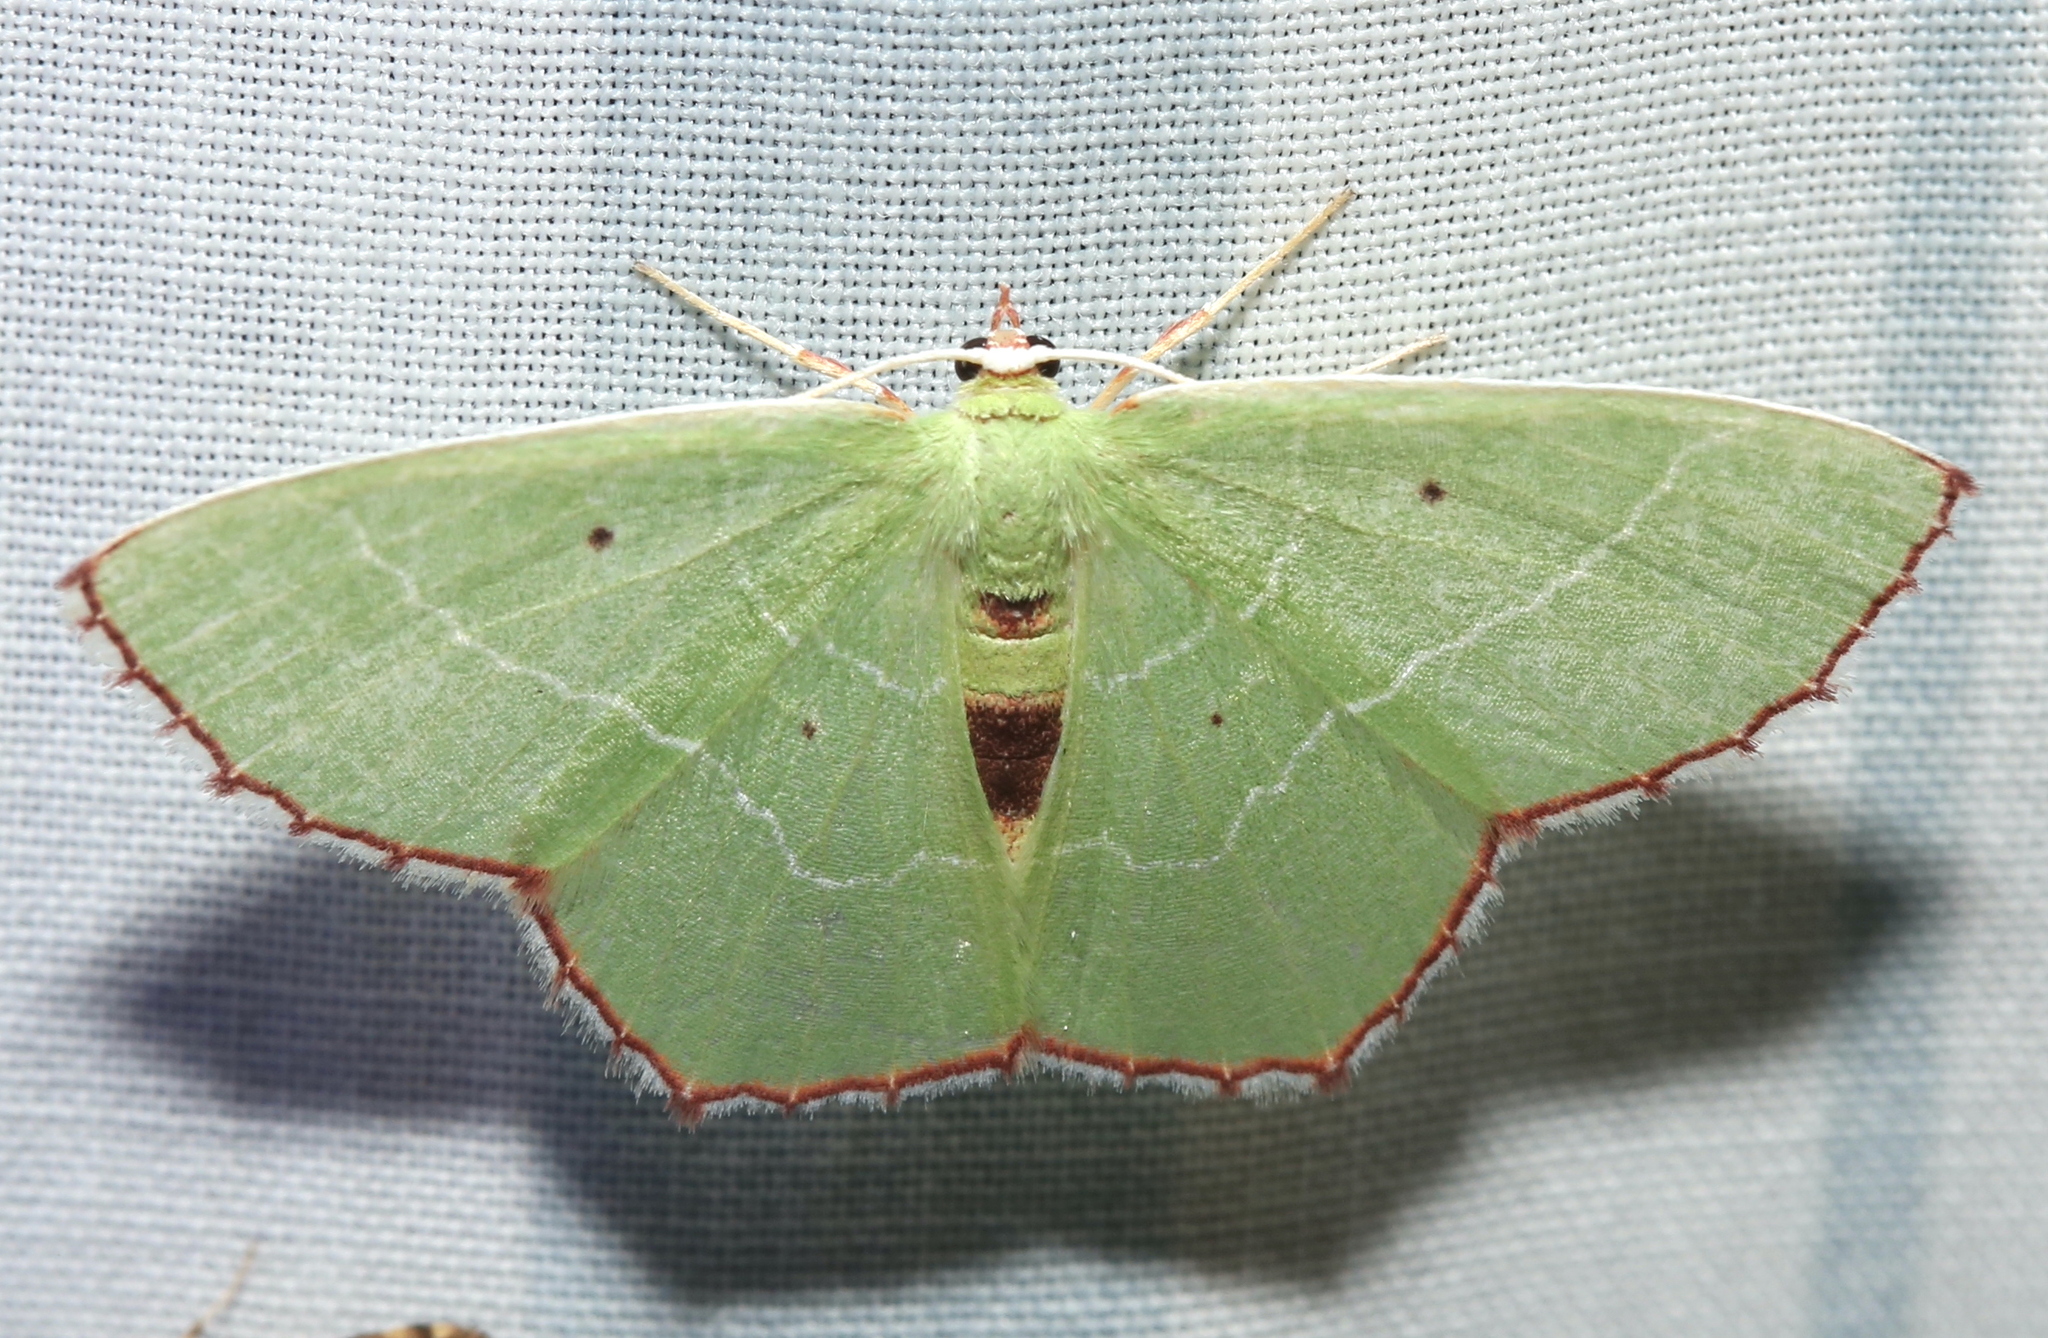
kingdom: Animalia
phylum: Arthropoda
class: Insecta
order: Lepidoptera
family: Geometridae
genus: Nemoria
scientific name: Nemoria saturiba
